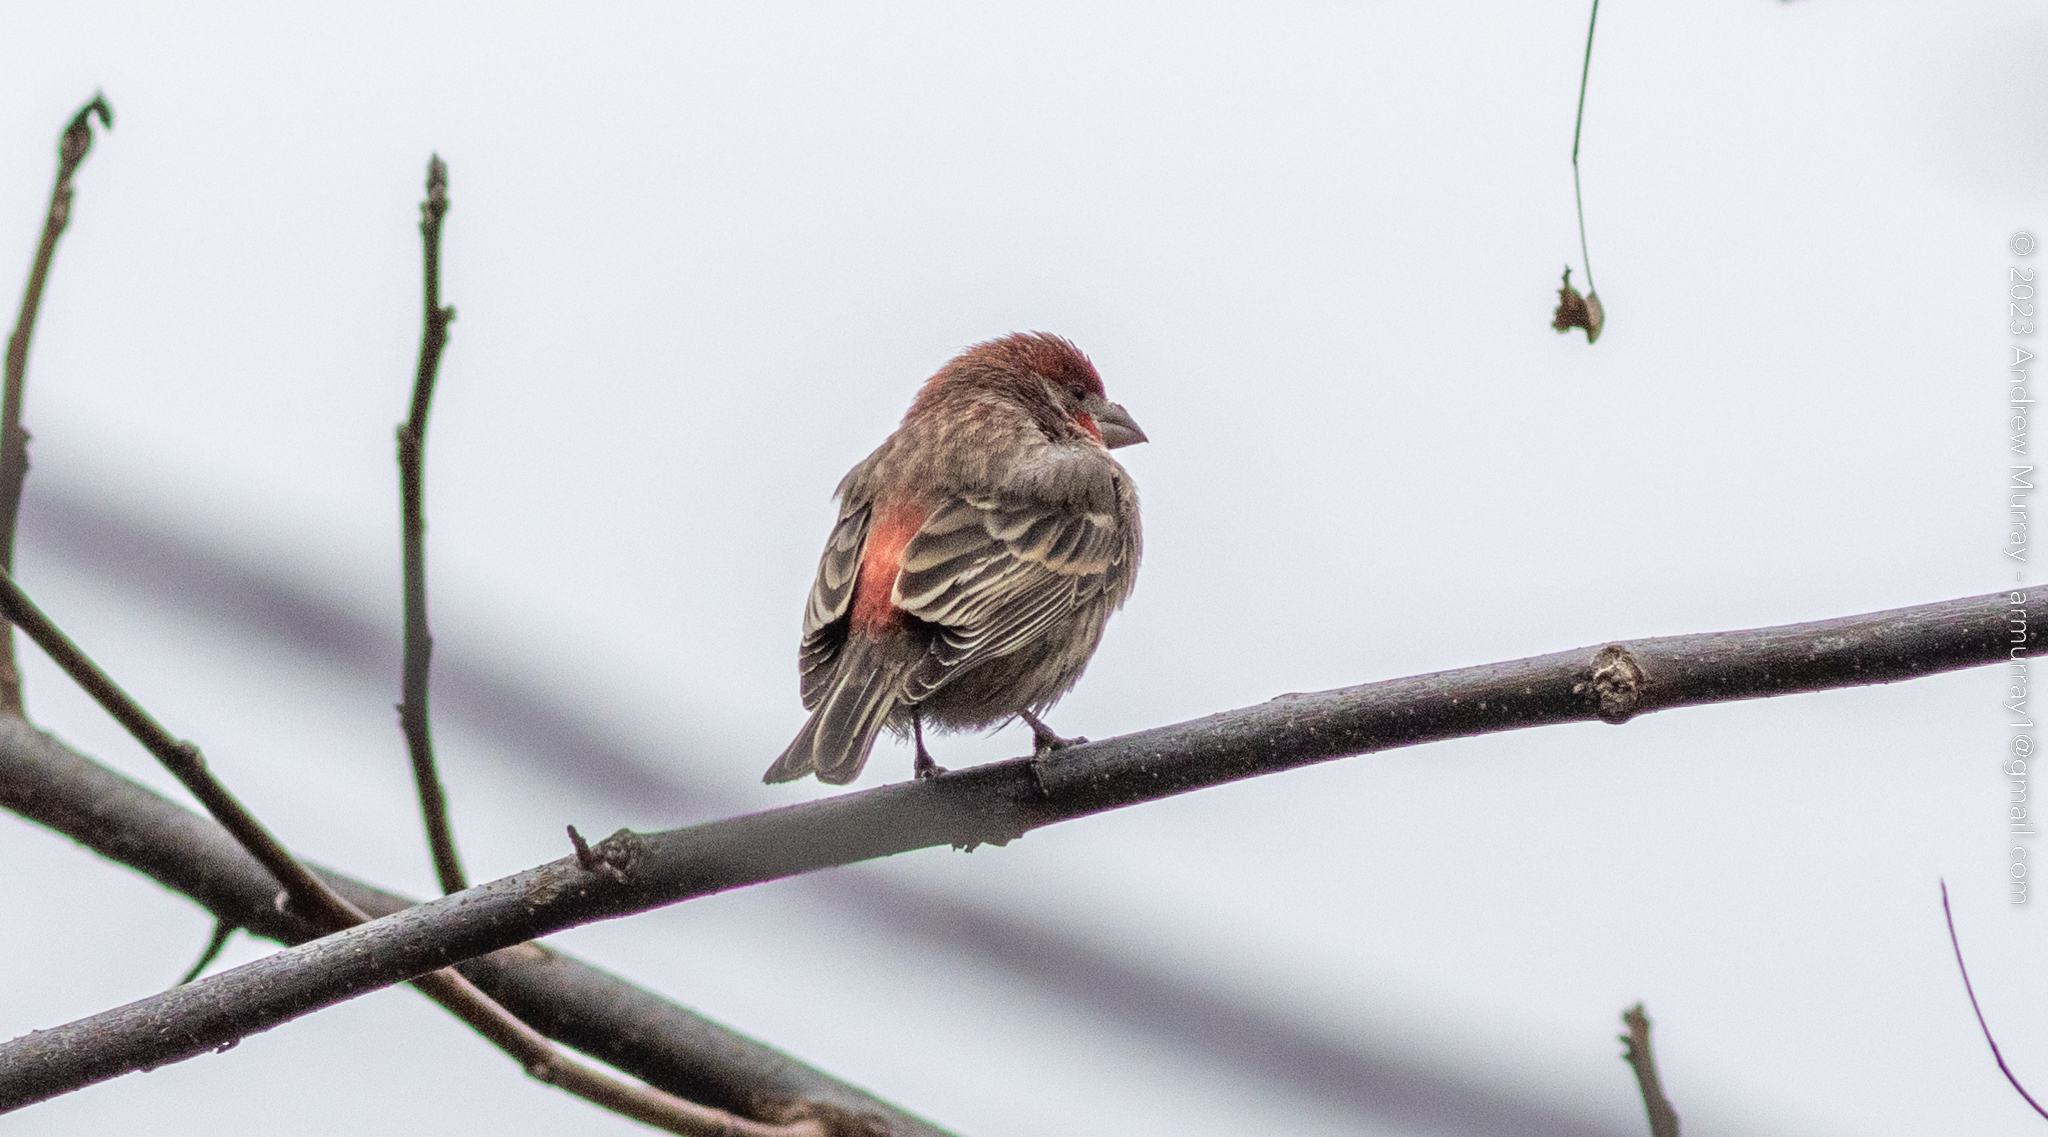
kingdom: Animalia
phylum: Chordata
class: Aves
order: Passeriformes
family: Fringillidae
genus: Haemorhous
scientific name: Haemorhous mexicanus
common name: House finch
